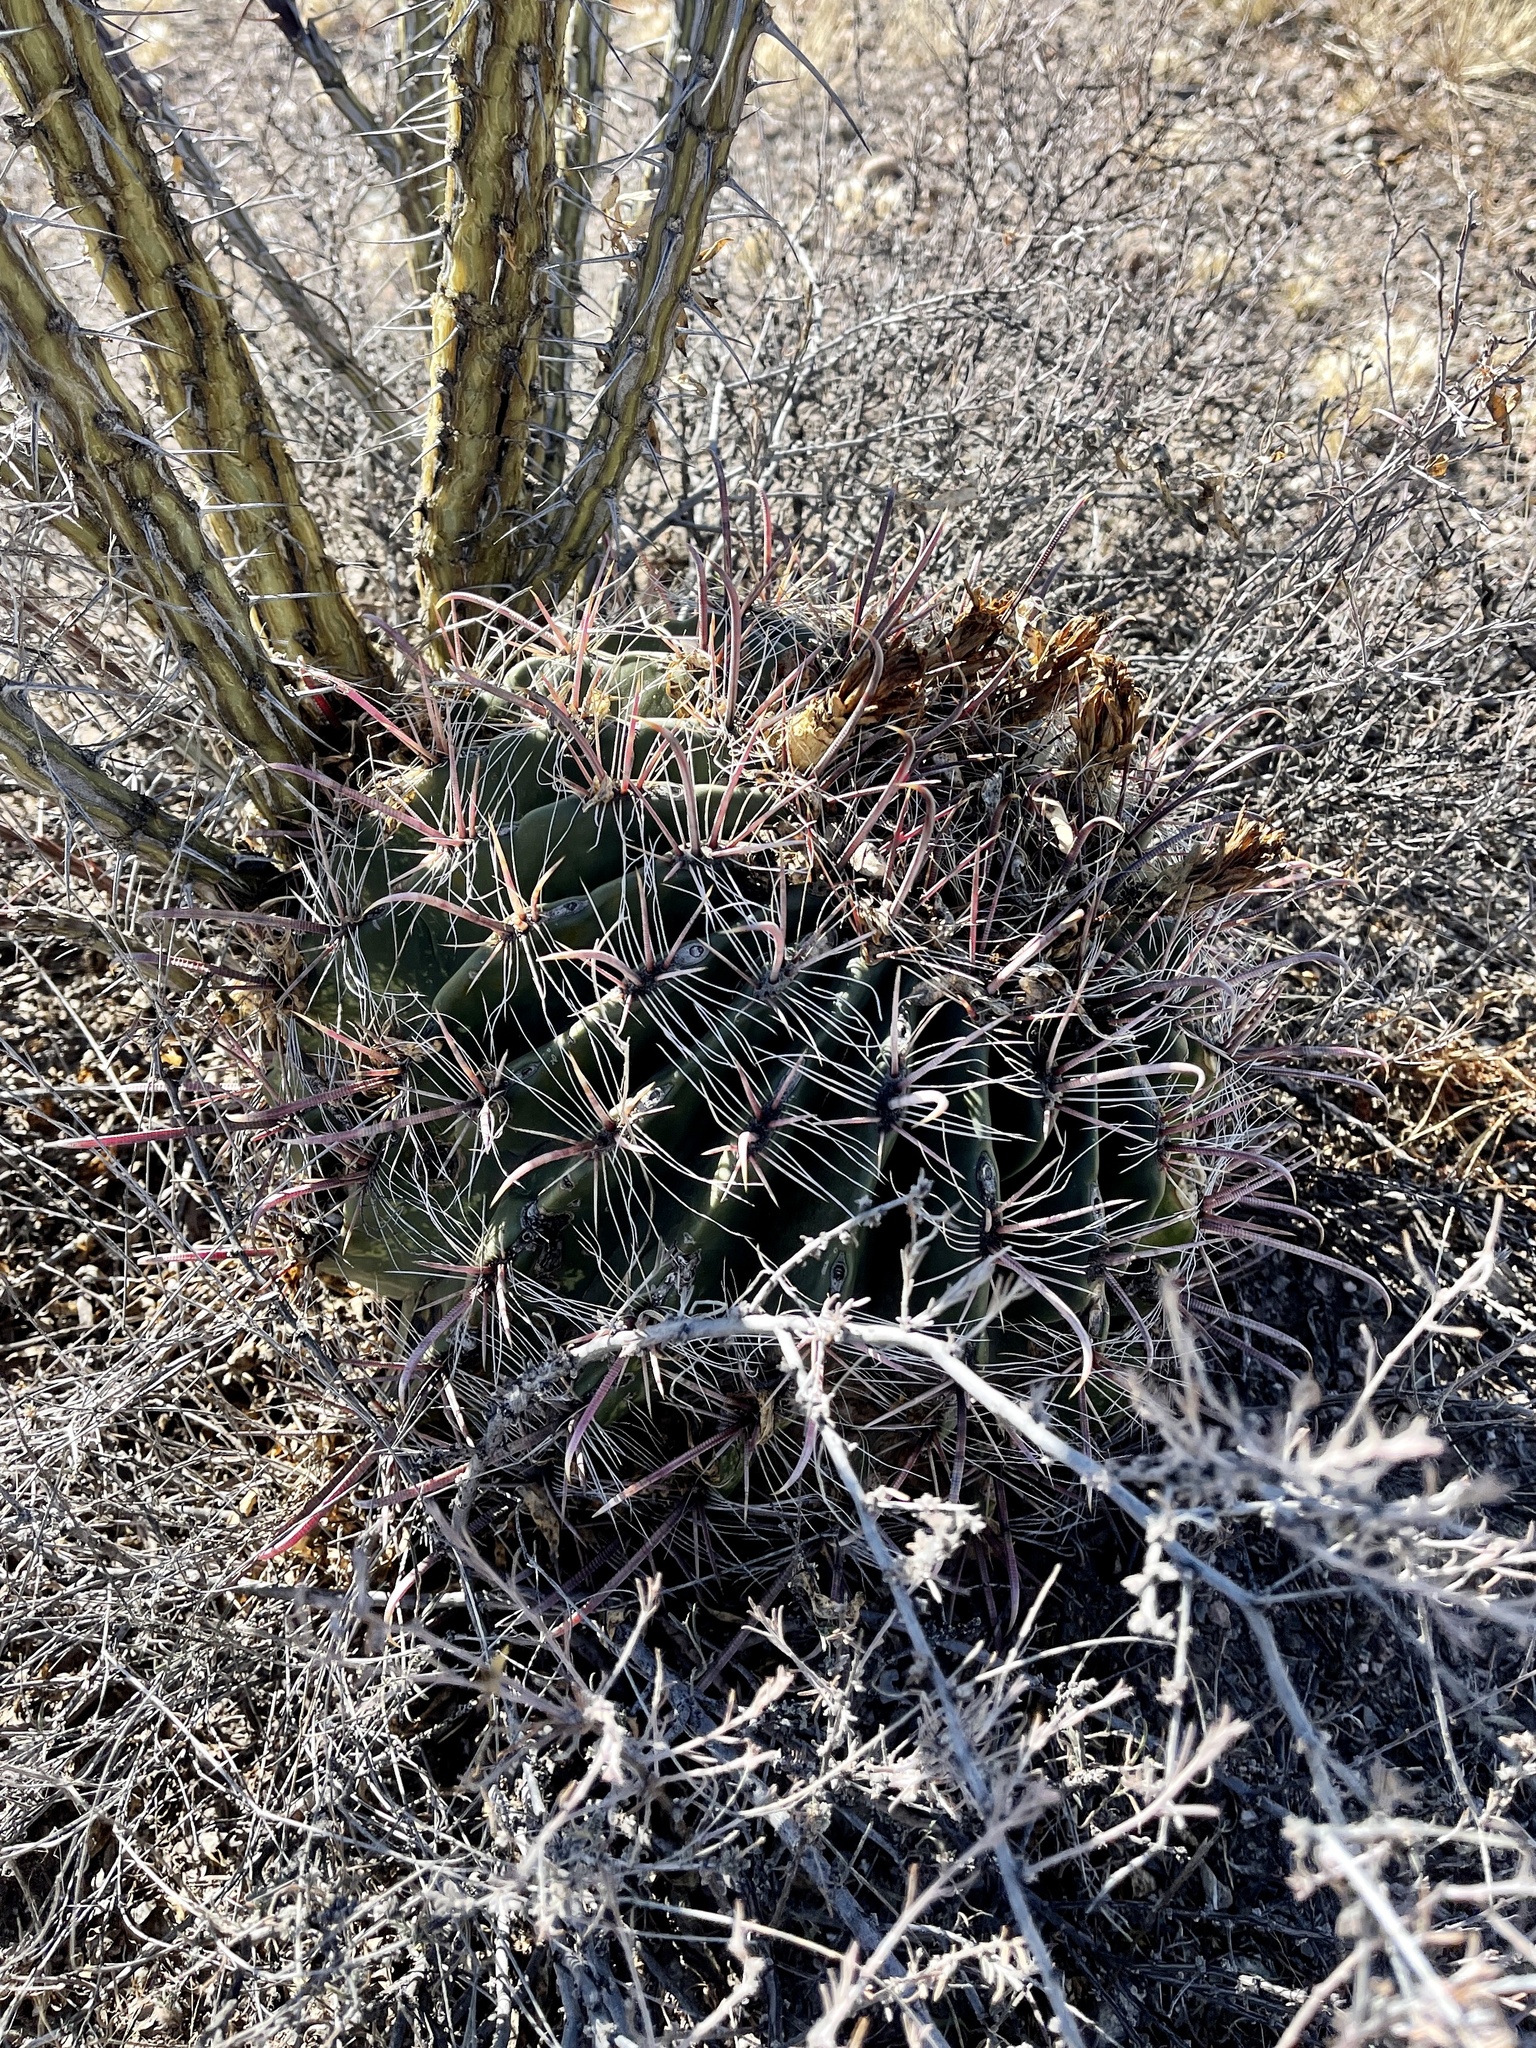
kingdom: Plantae
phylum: Tracheophyta
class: Magnoliopsida
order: Caryophyllales
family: Cactaceae
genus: Ferocactus
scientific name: Ferocactus wislizeni
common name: Candy barrel cactus
